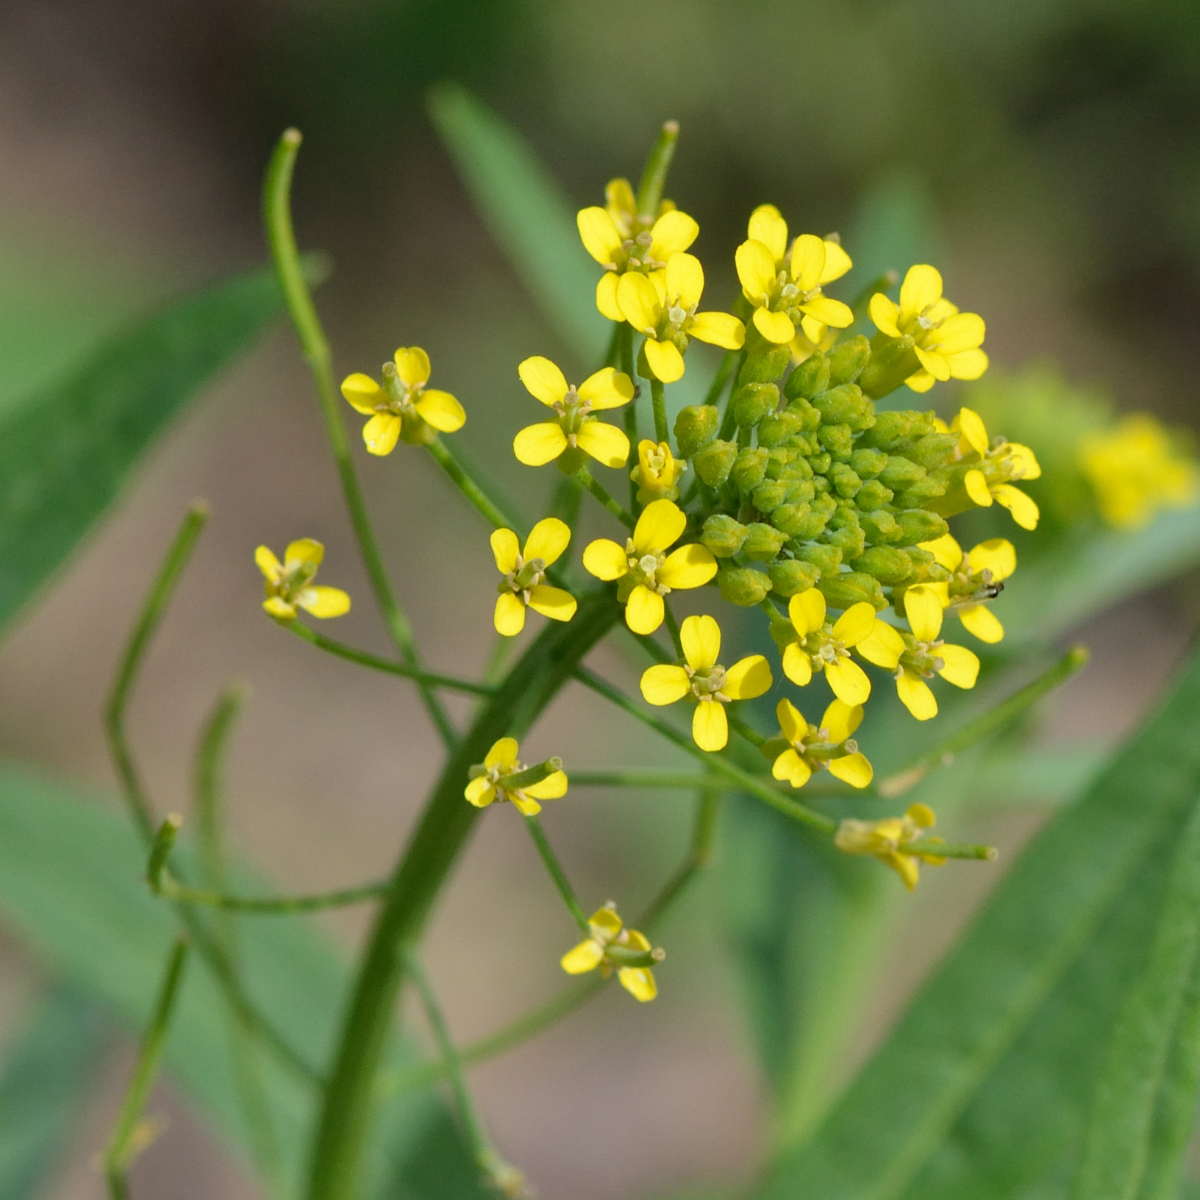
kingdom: Plantae
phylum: Tracheophyta
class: Magnoliopsida
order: Brassicales
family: Brassicaceae
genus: Erysimum
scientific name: Erysimum cheiranthoides
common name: Treacle mustard
